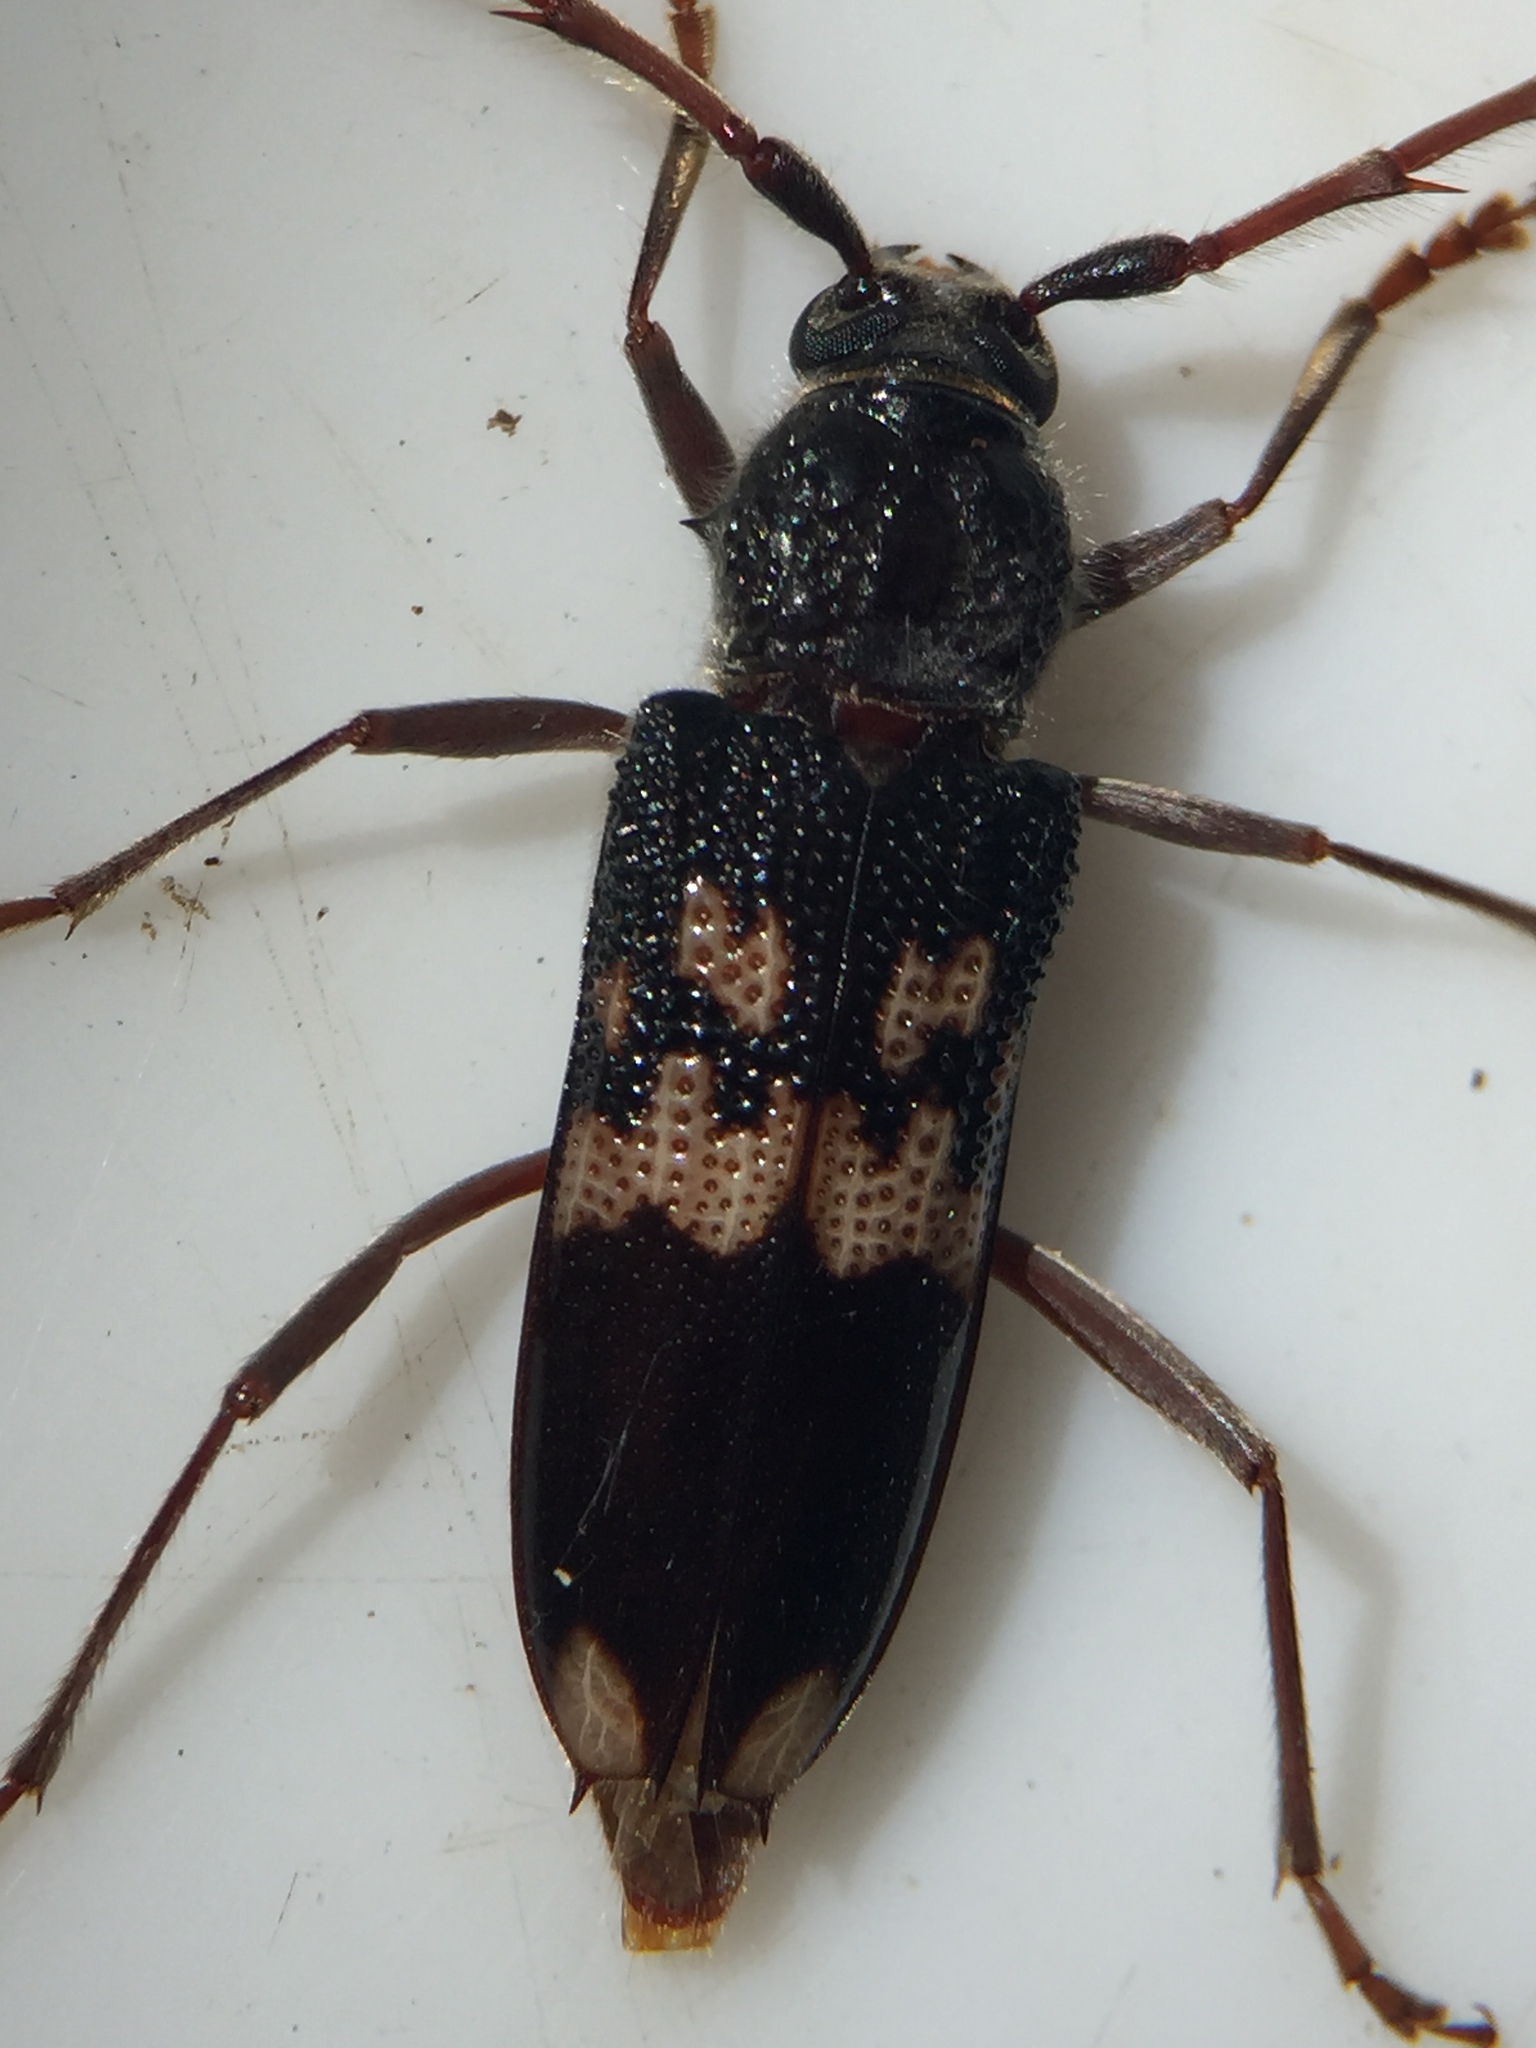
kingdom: Animalia
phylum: Arthropoda
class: Insecta
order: Coleoptera
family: Cerambycidae
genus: Phoracantha
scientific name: Phoracantha semipunctata
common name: Eucalyptus longhorn borer
